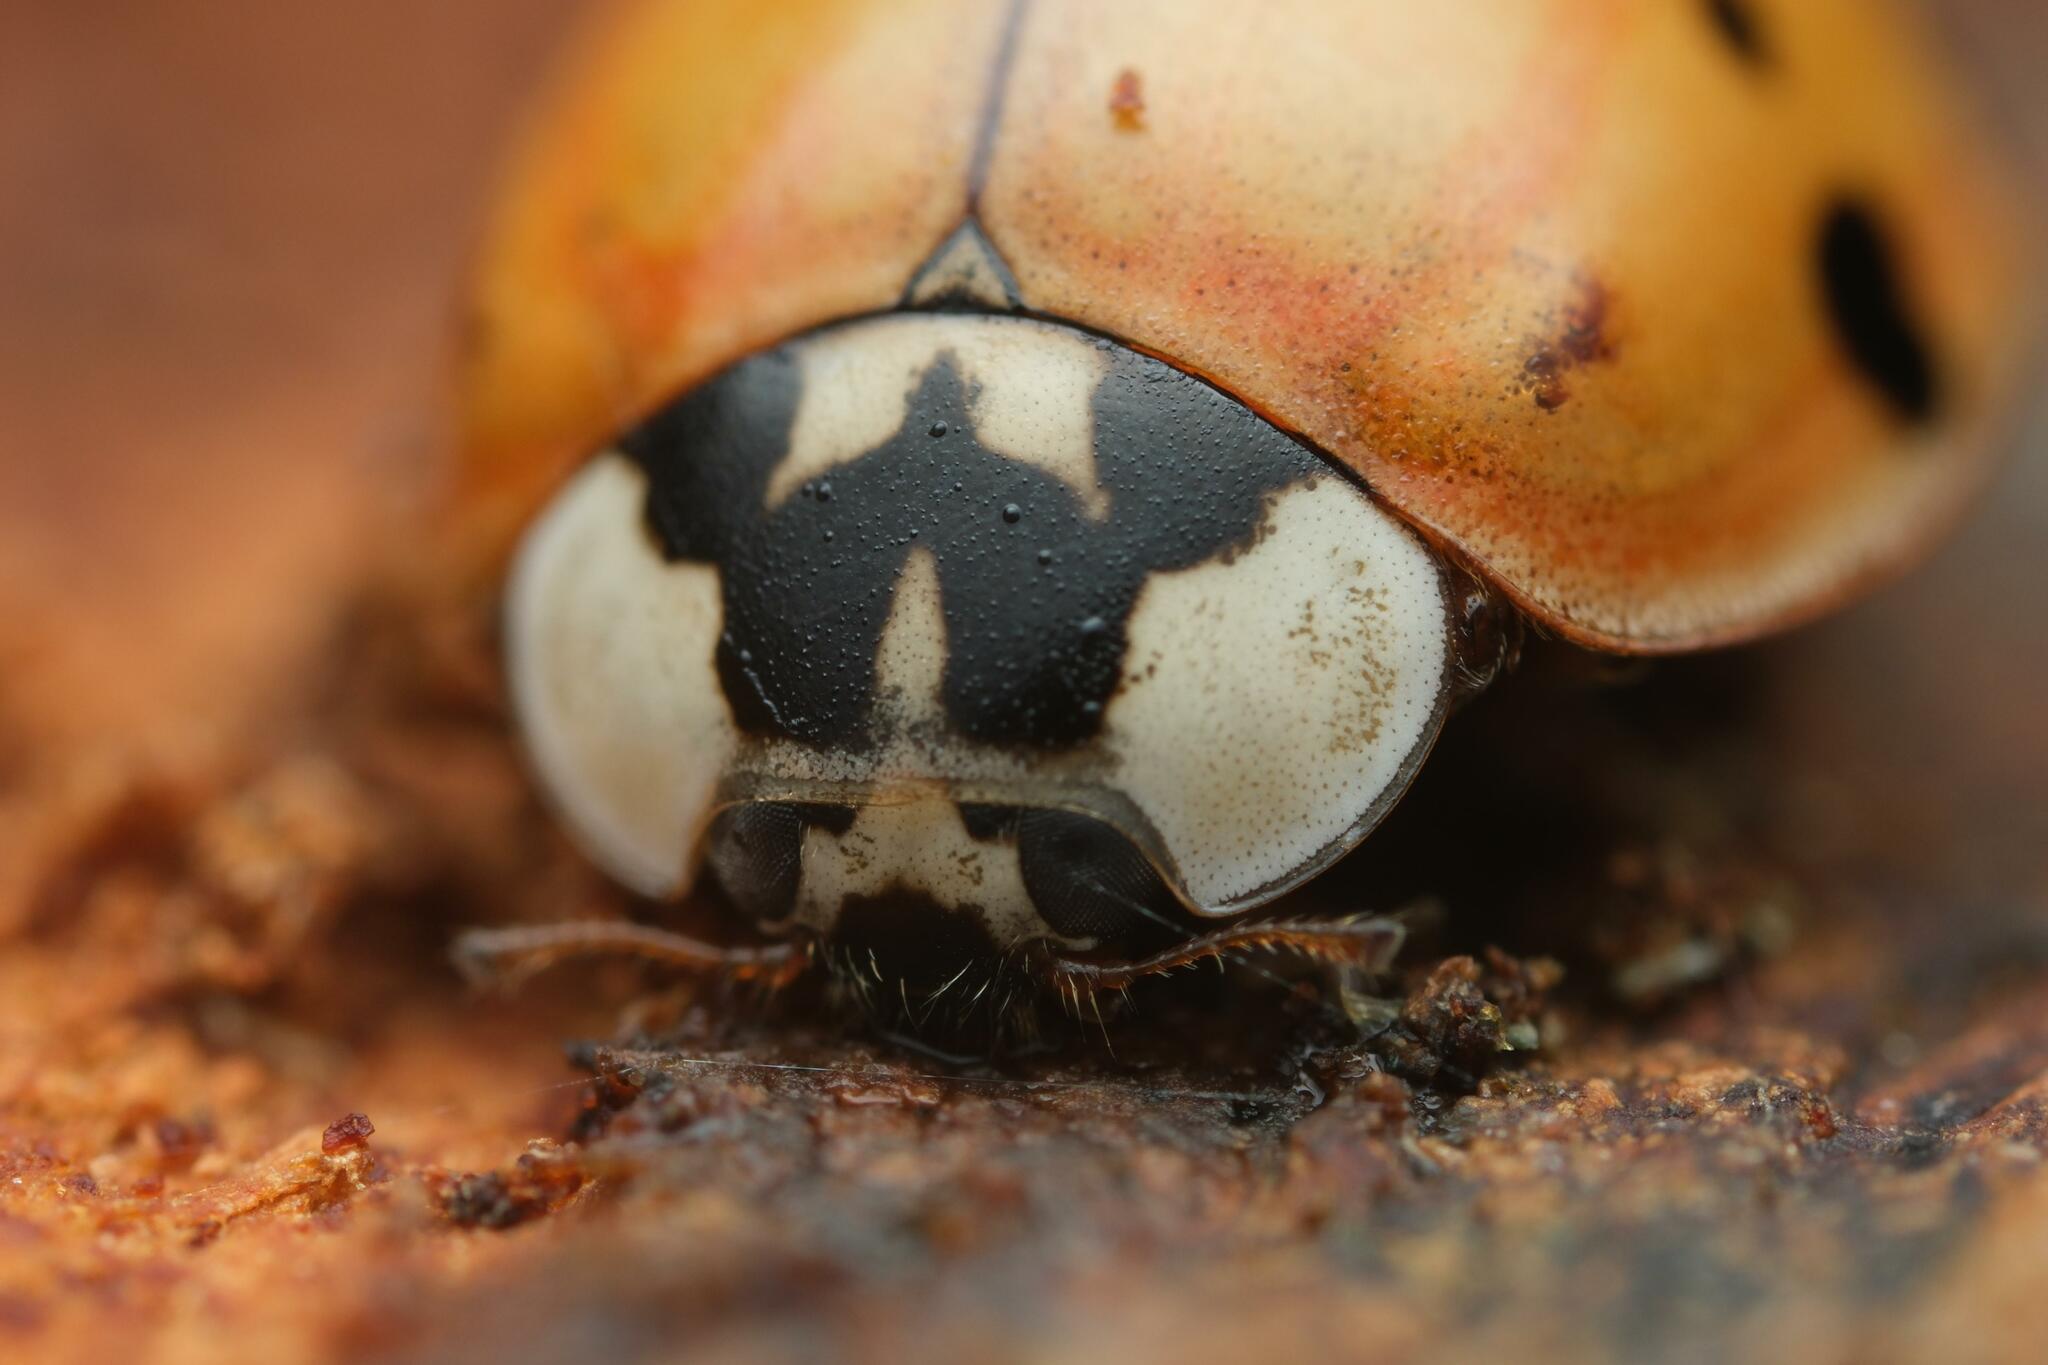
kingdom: Animalia
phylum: Arthropoda
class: Insecta
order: Coleoptera
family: Coccinellidae
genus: Harmonia
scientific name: Harmonia axyridis
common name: Harlequin ladybird
